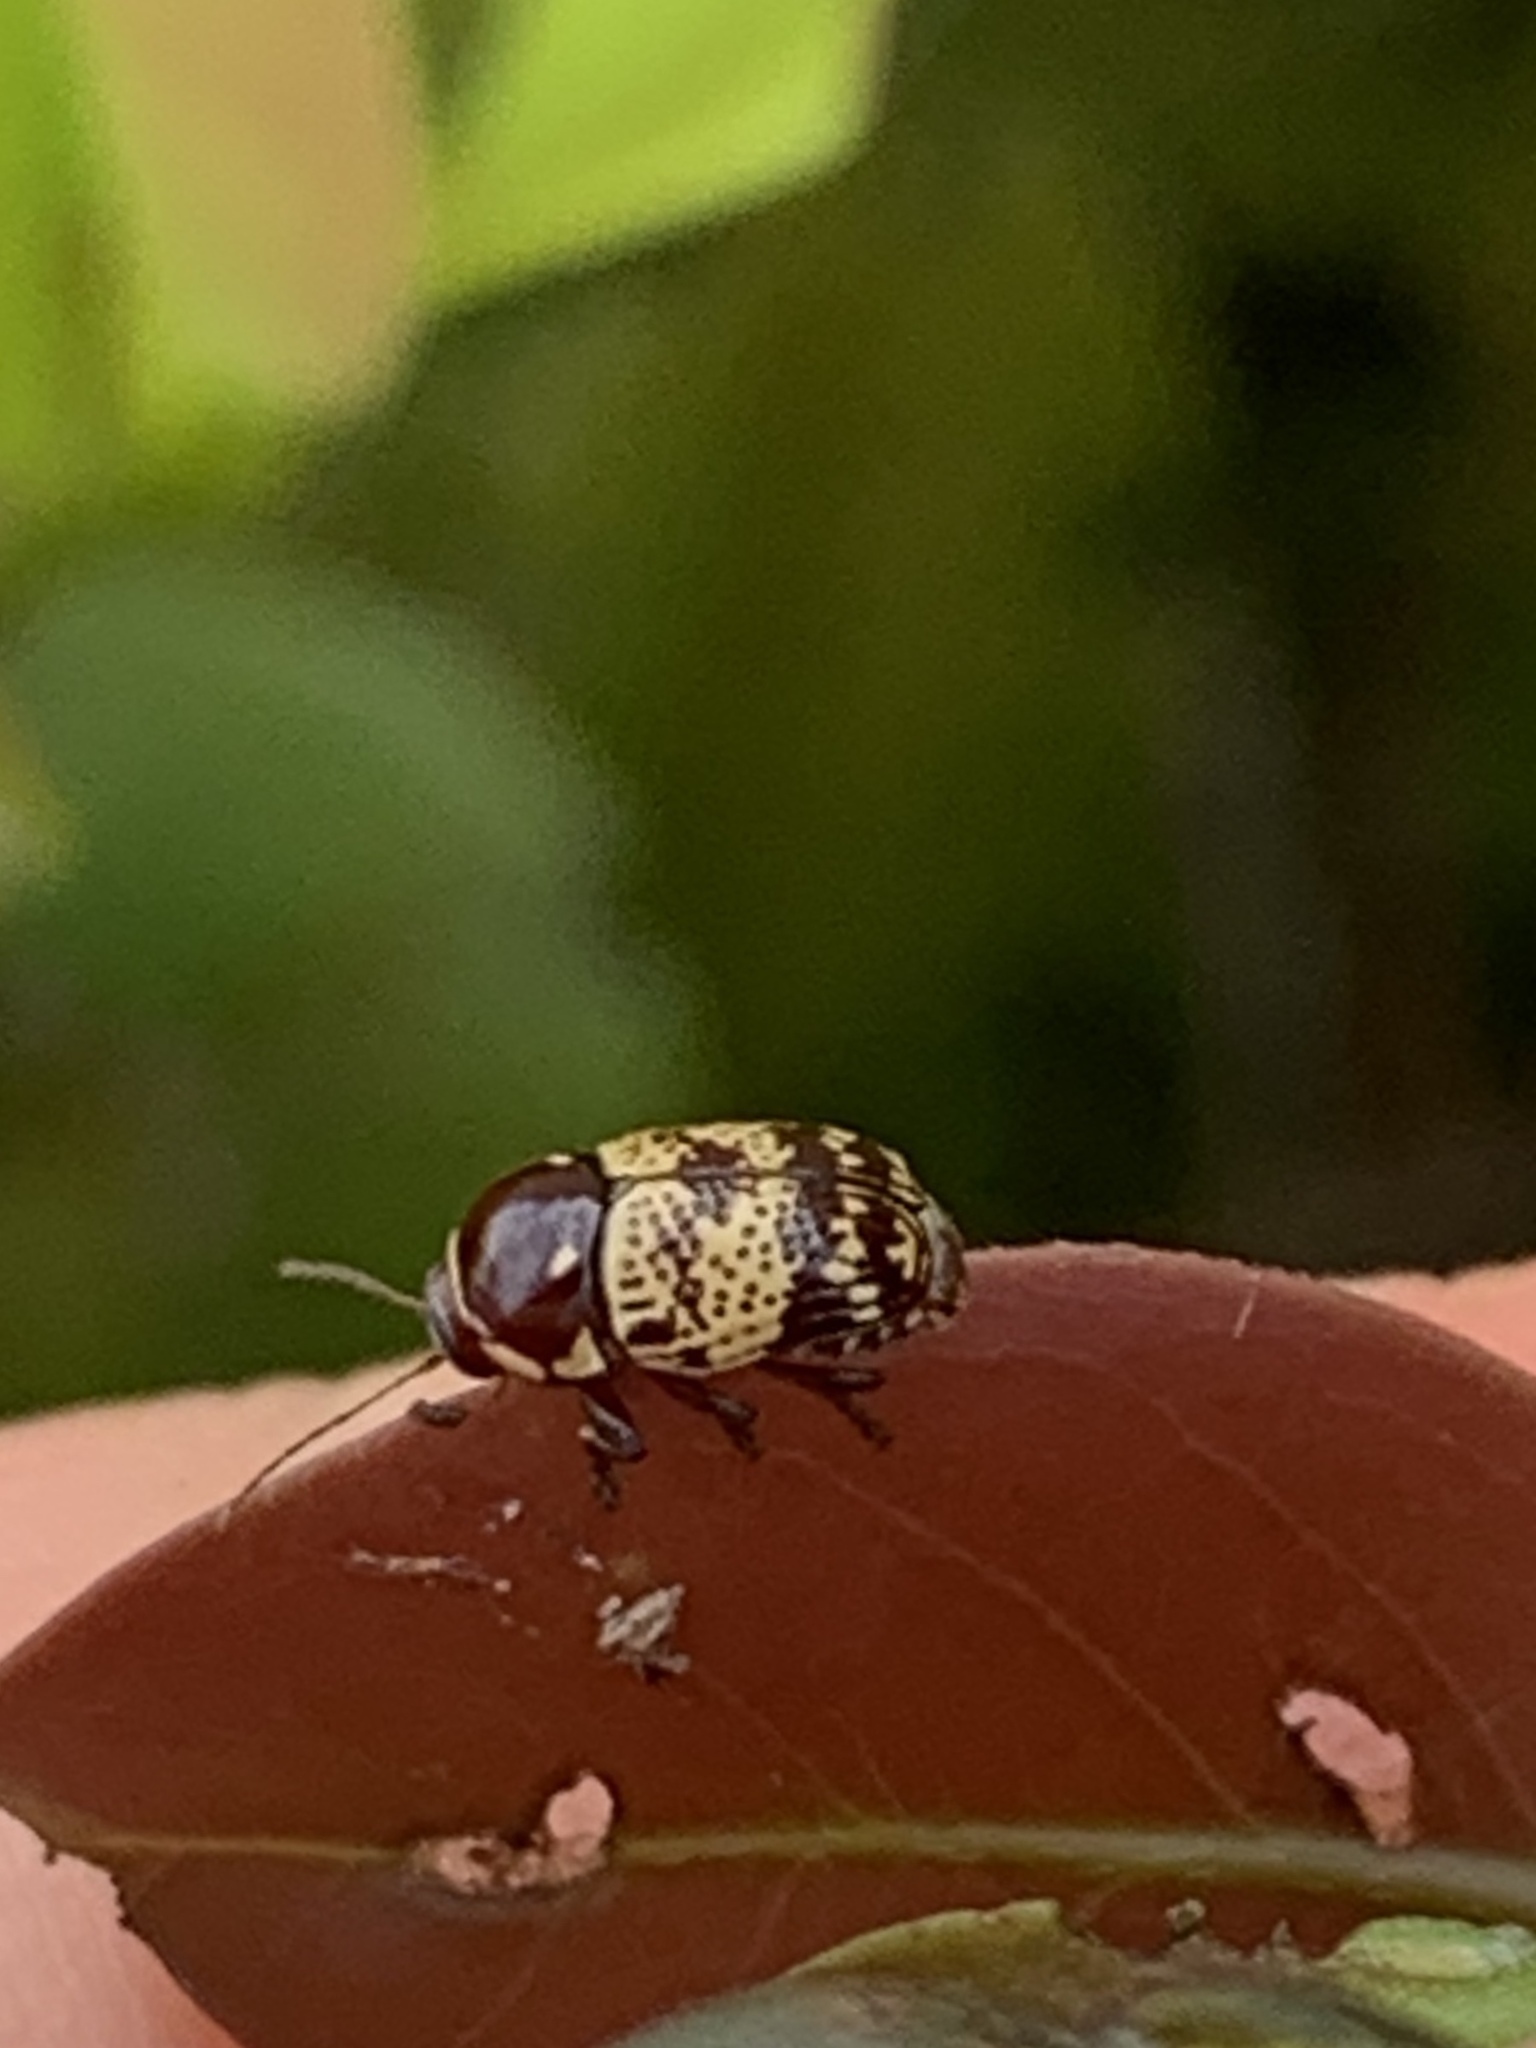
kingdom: Animalia
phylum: Arthropoda
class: Insecta
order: Coleoptera
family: Chrysomelidae
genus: Cryptocephalus
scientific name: Cryptocephalus irroratus
